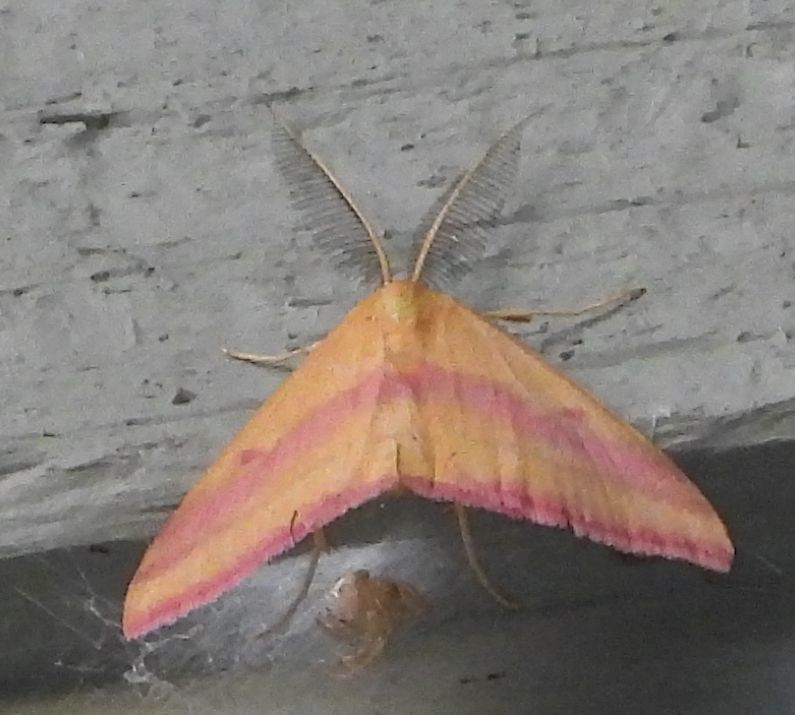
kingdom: Animalia
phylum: Arthropoda
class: Insecta
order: Lepidoptera
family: Geometridae
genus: Haematopis
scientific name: Haematopis grataria
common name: Chickweed geometer
